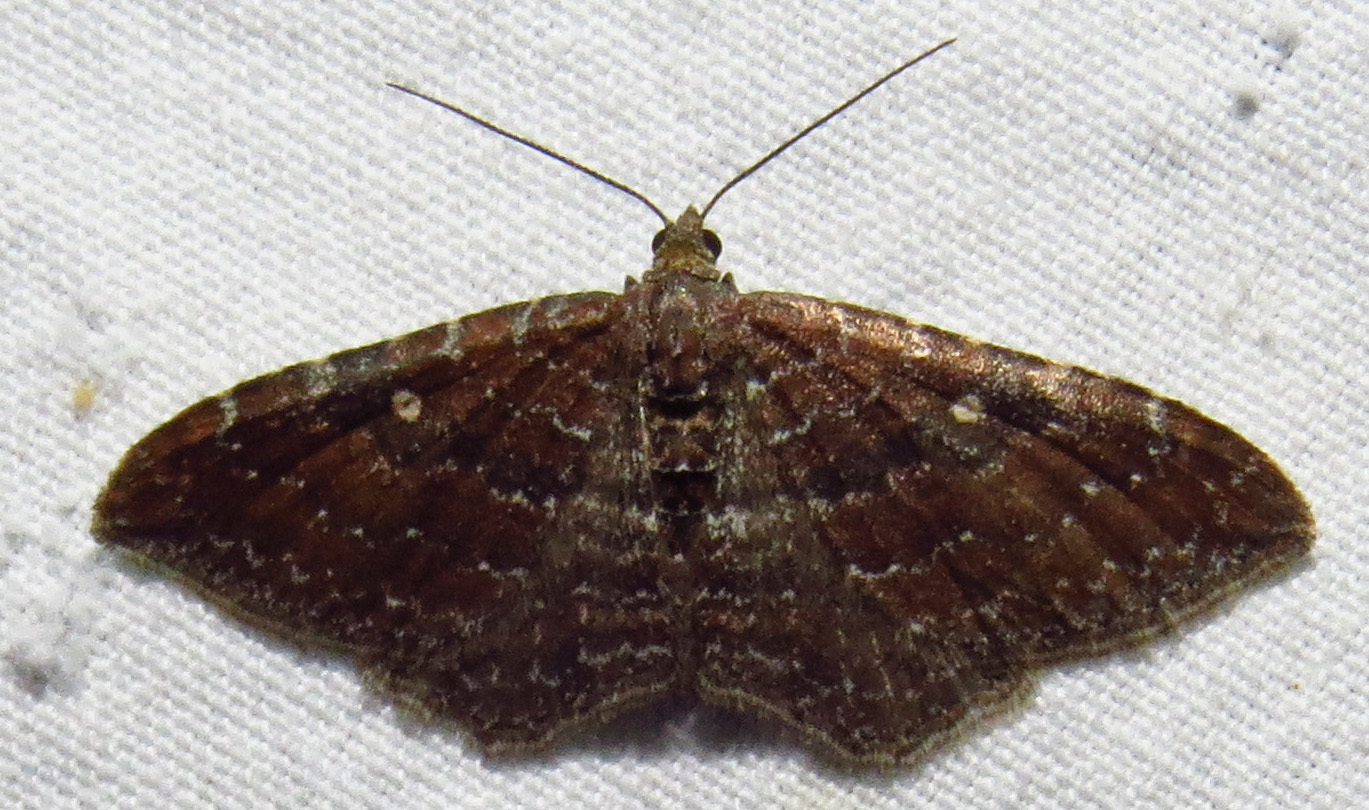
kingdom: Animalia
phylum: Arthropoda
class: Insecta
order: Lepidoptera
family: Geometridae
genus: Orthonama
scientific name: Orthonama obstipata
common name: The gem
